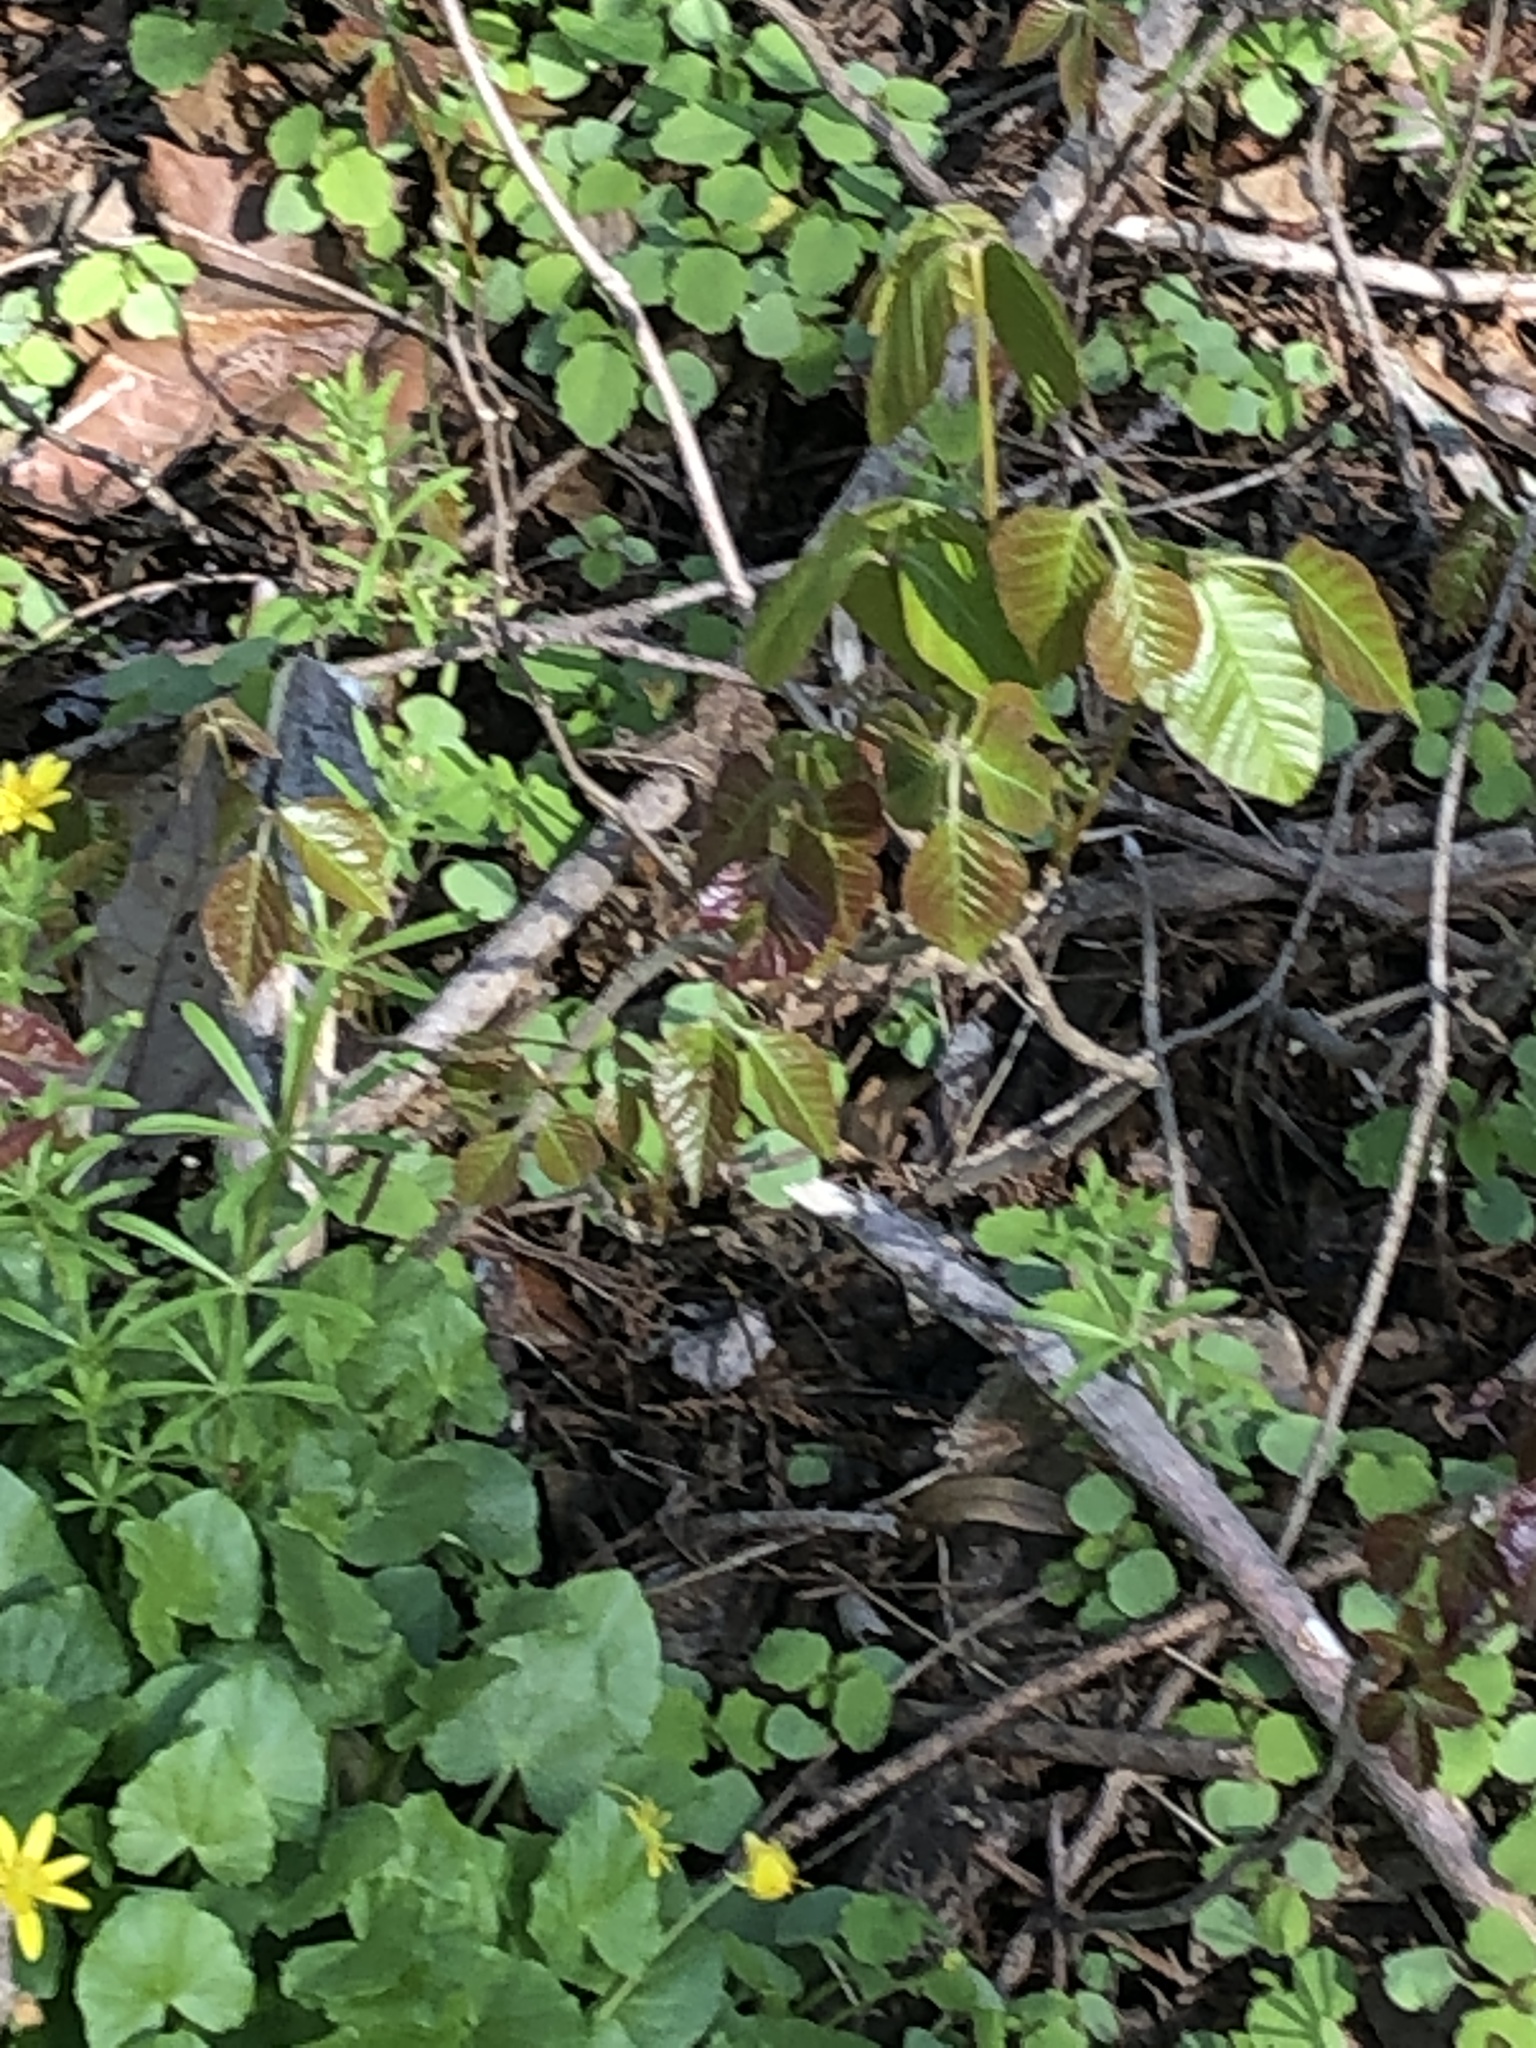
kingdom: Plantae
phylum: Tracheophyta
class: Magnoliopsida
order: Sapindales
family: Anacardiaceae
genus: Toxicodendron
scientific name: Toxicodendron radicans
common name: Poison ivy
